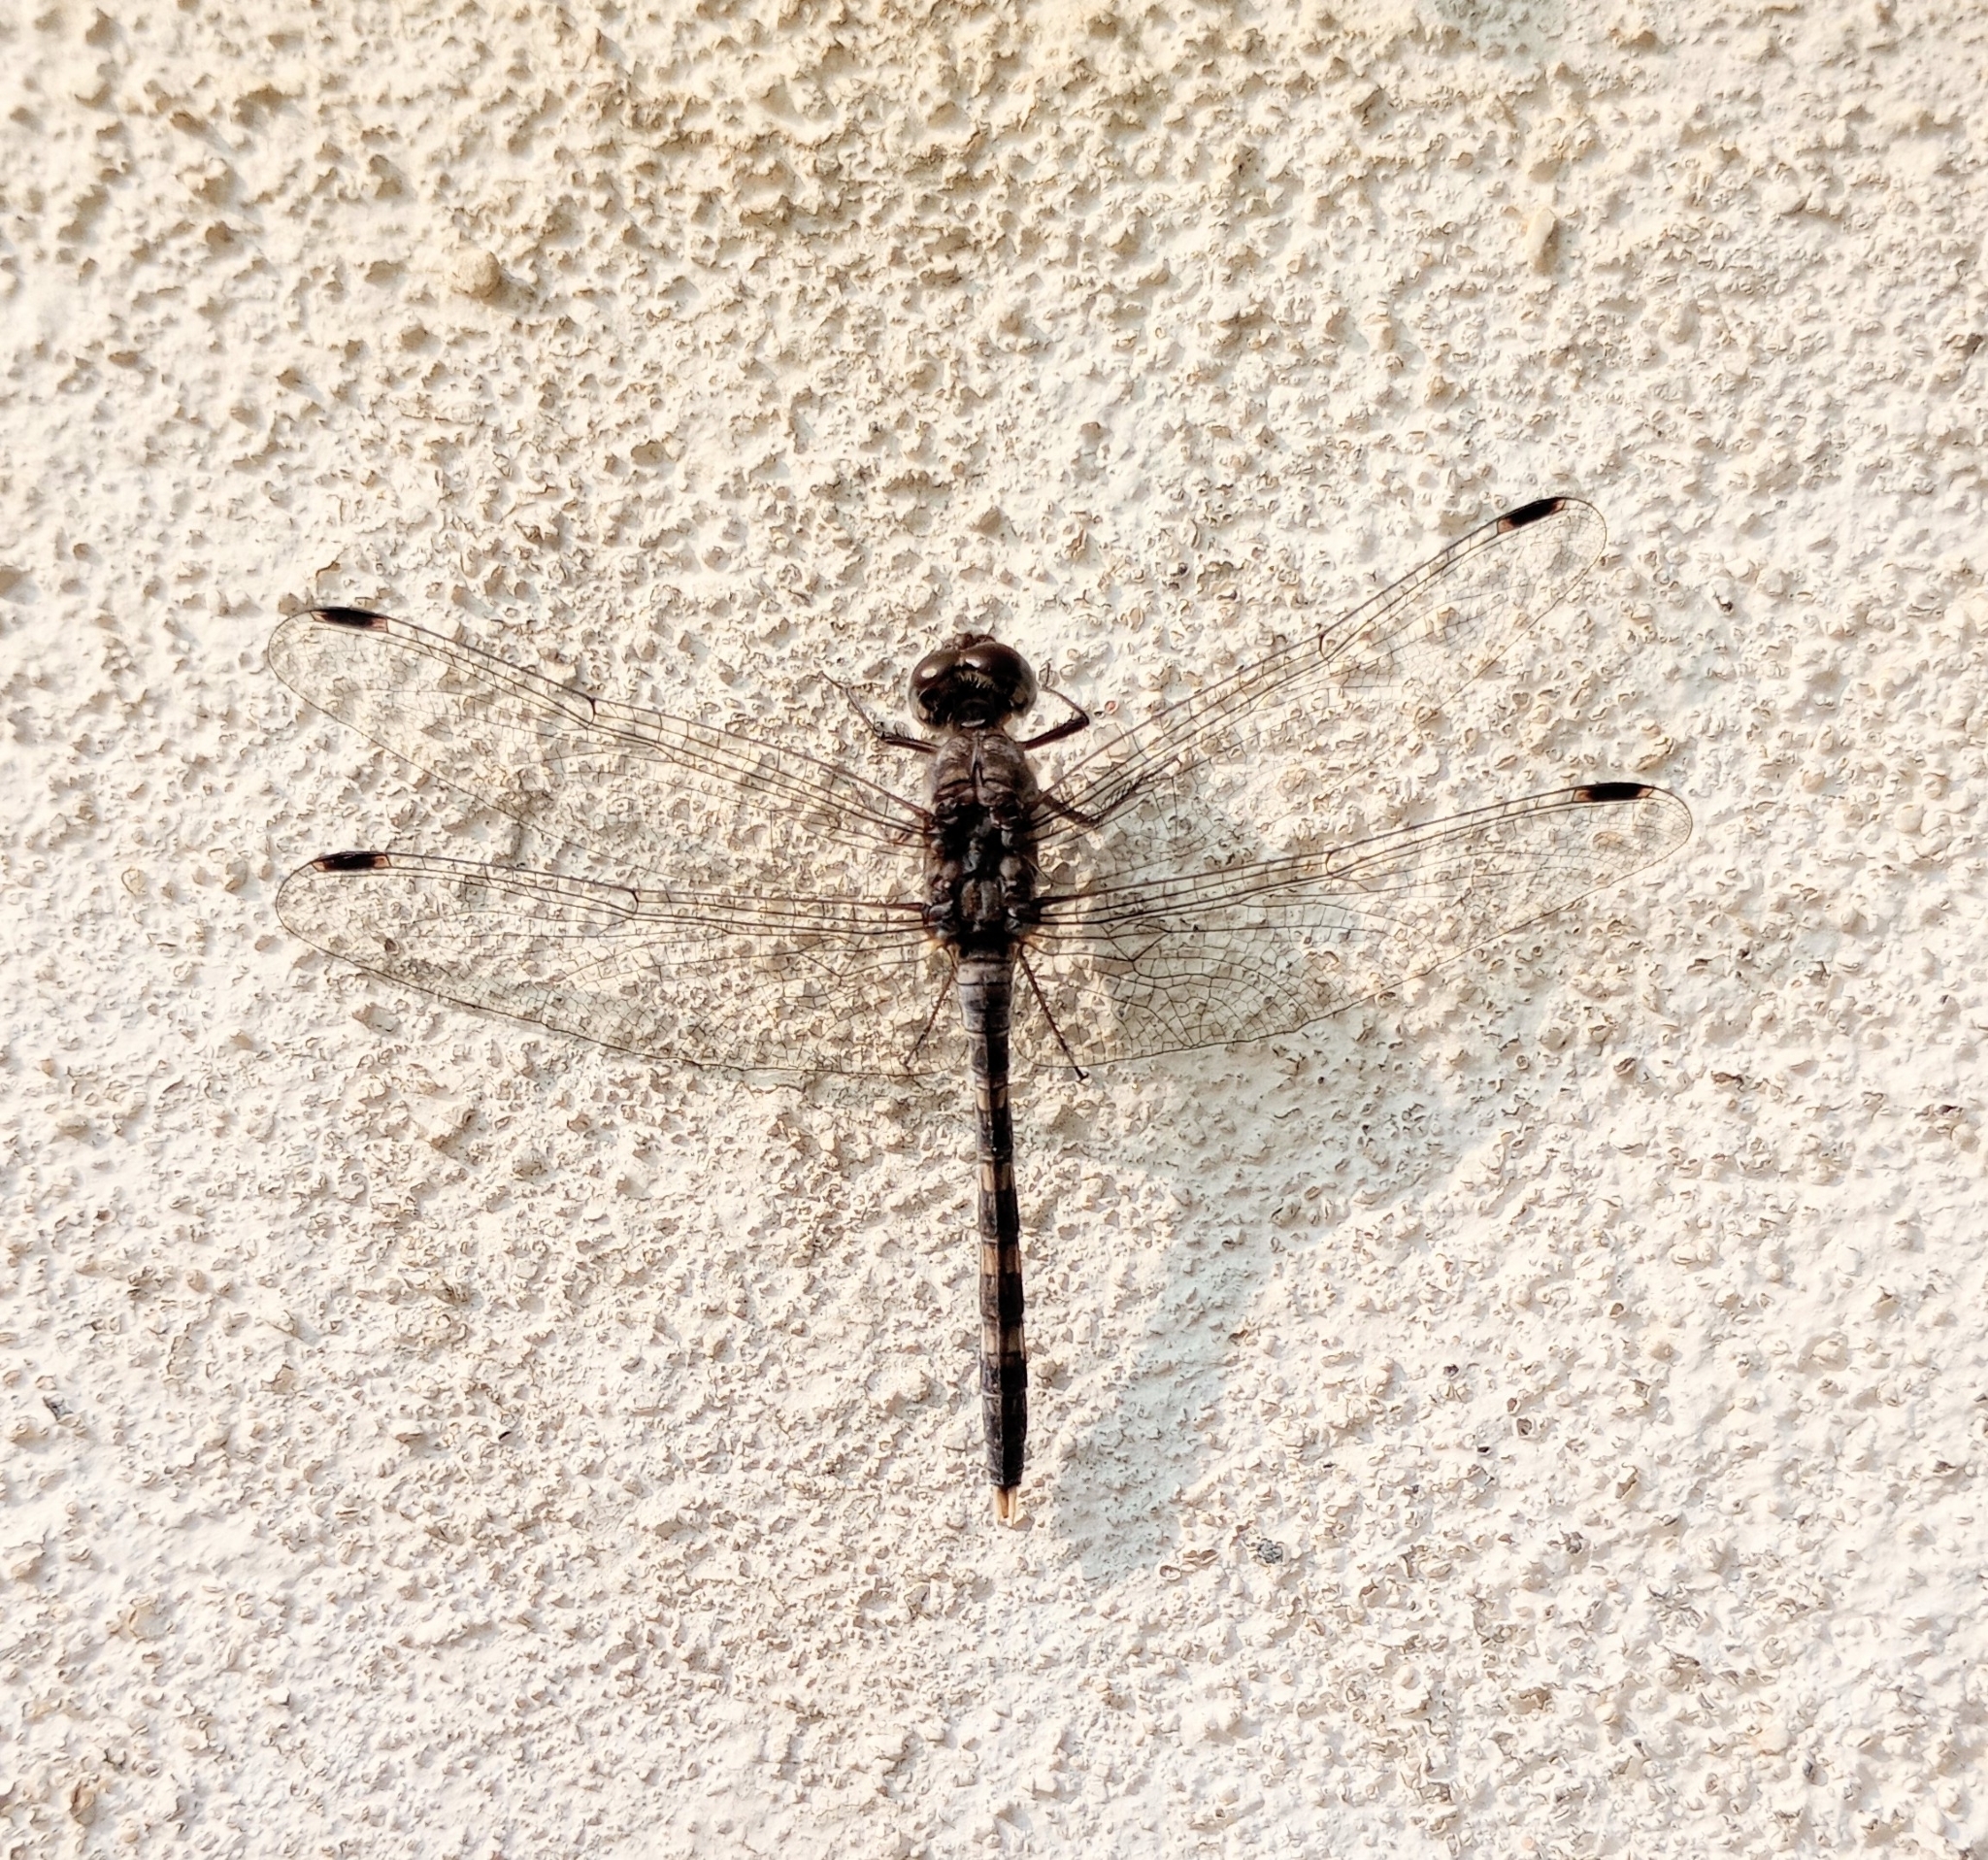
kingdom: Animalia
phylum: Arthropoda
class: Insecta
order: Odonata
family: Libellulidae
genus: Bradinopyga
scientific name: Bradinopyga geminata
